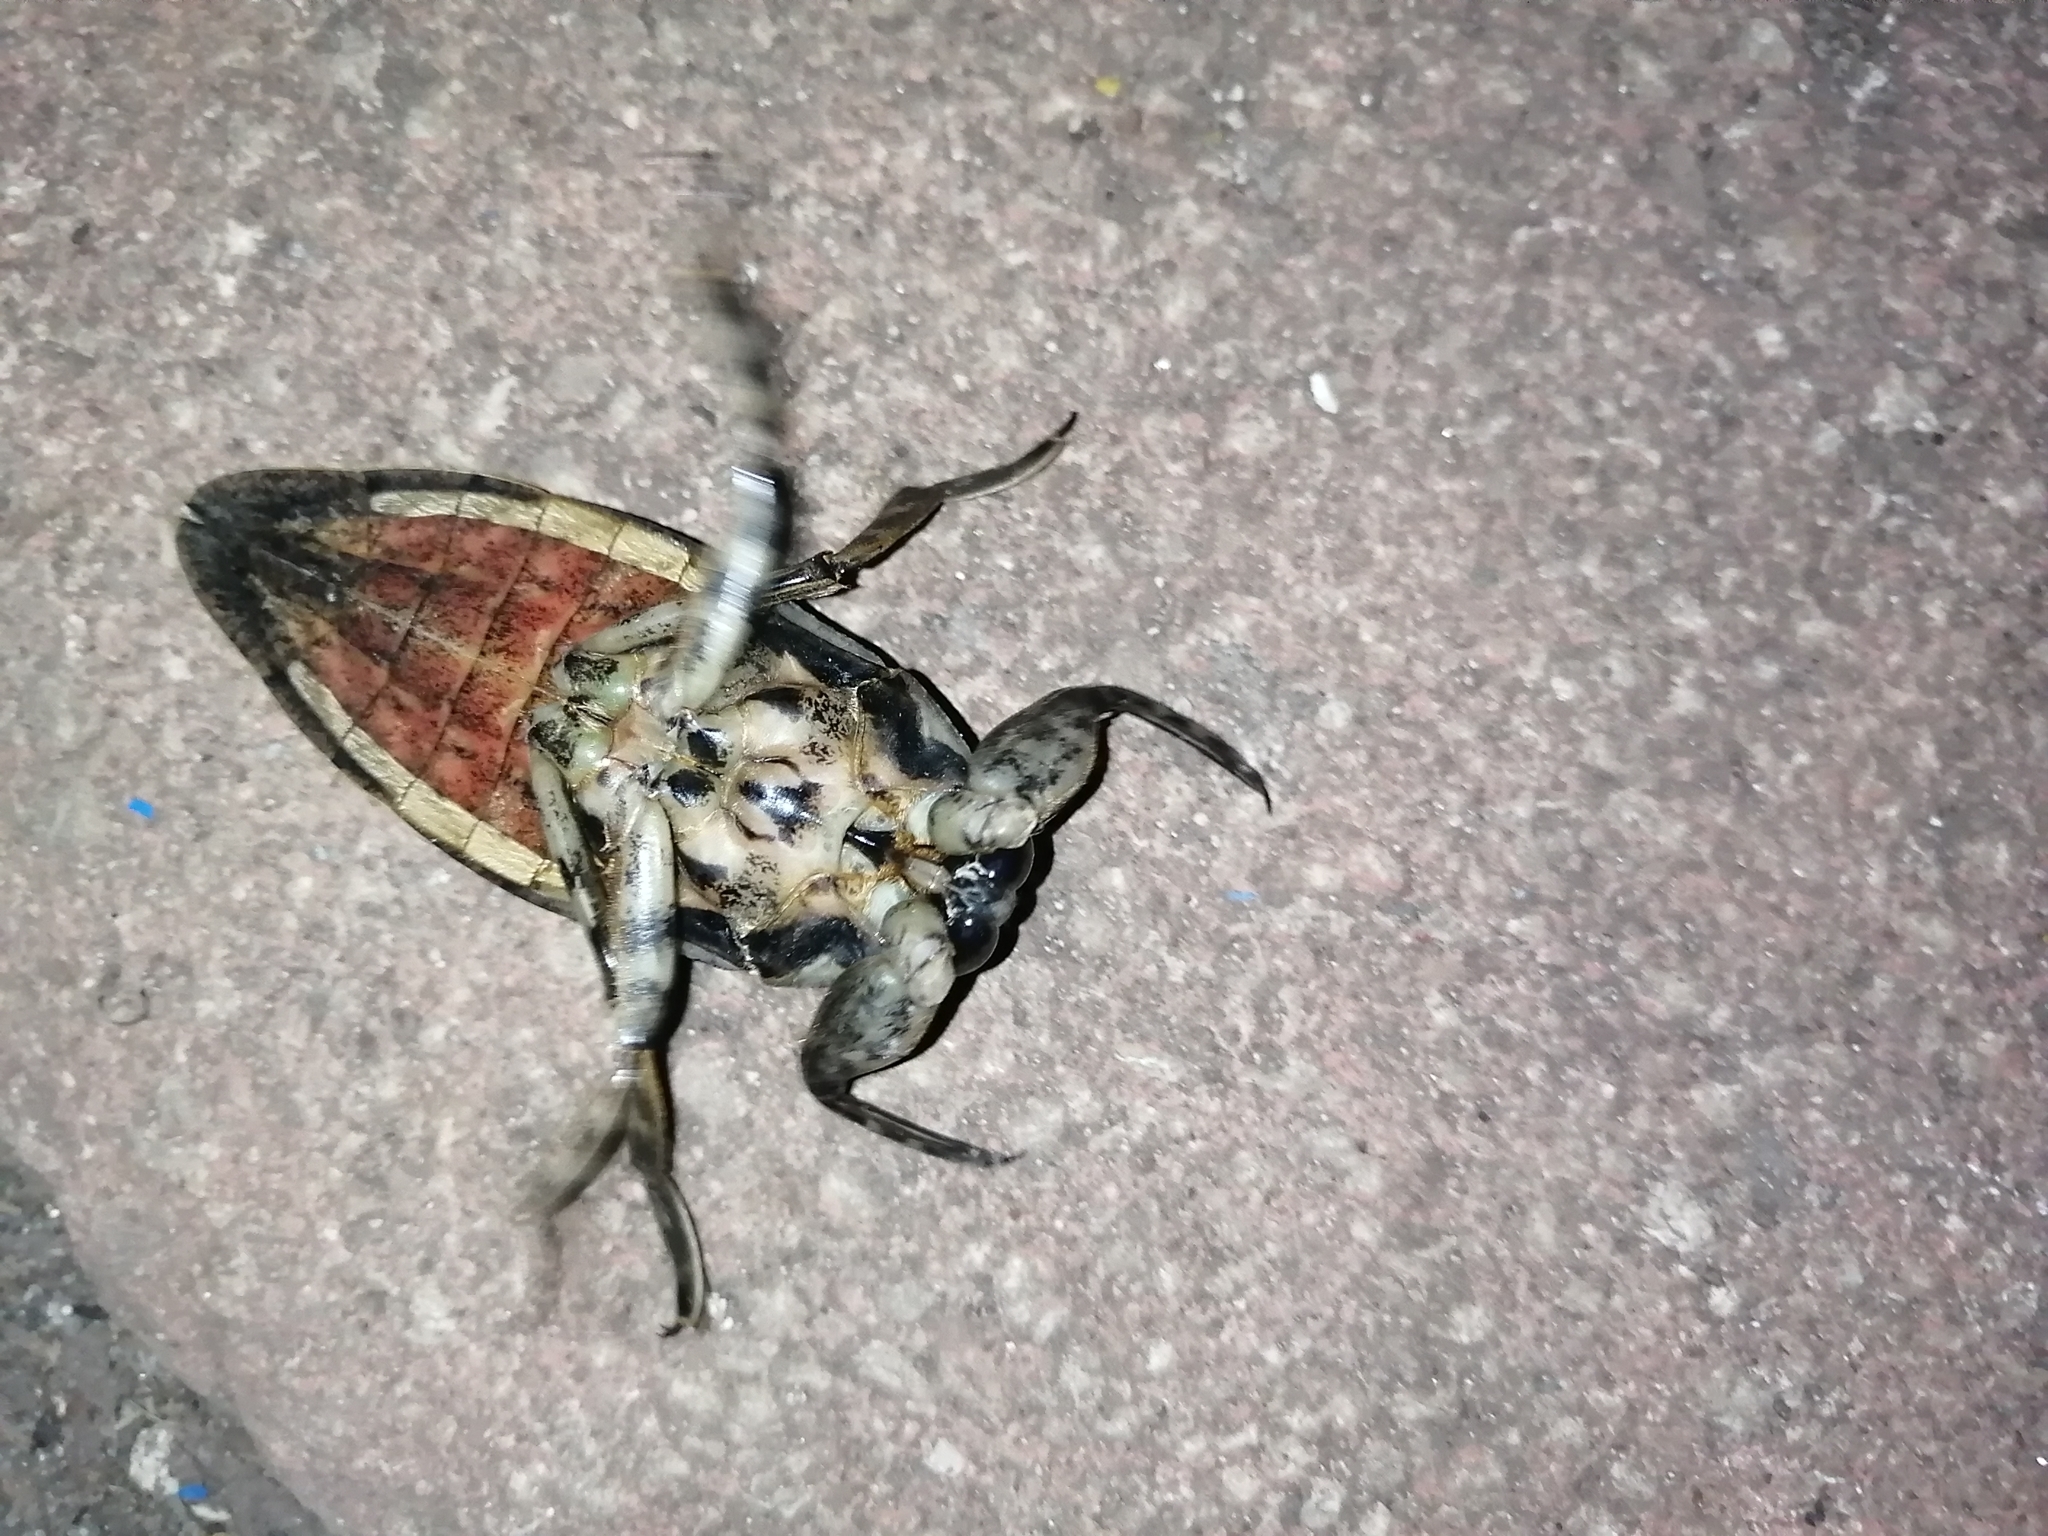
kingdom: Animalia
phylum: Arthropoda
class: Insecta
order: Hemiptera
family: Belostomatidae
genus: Lethocerus
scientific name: Lethocerus medius
